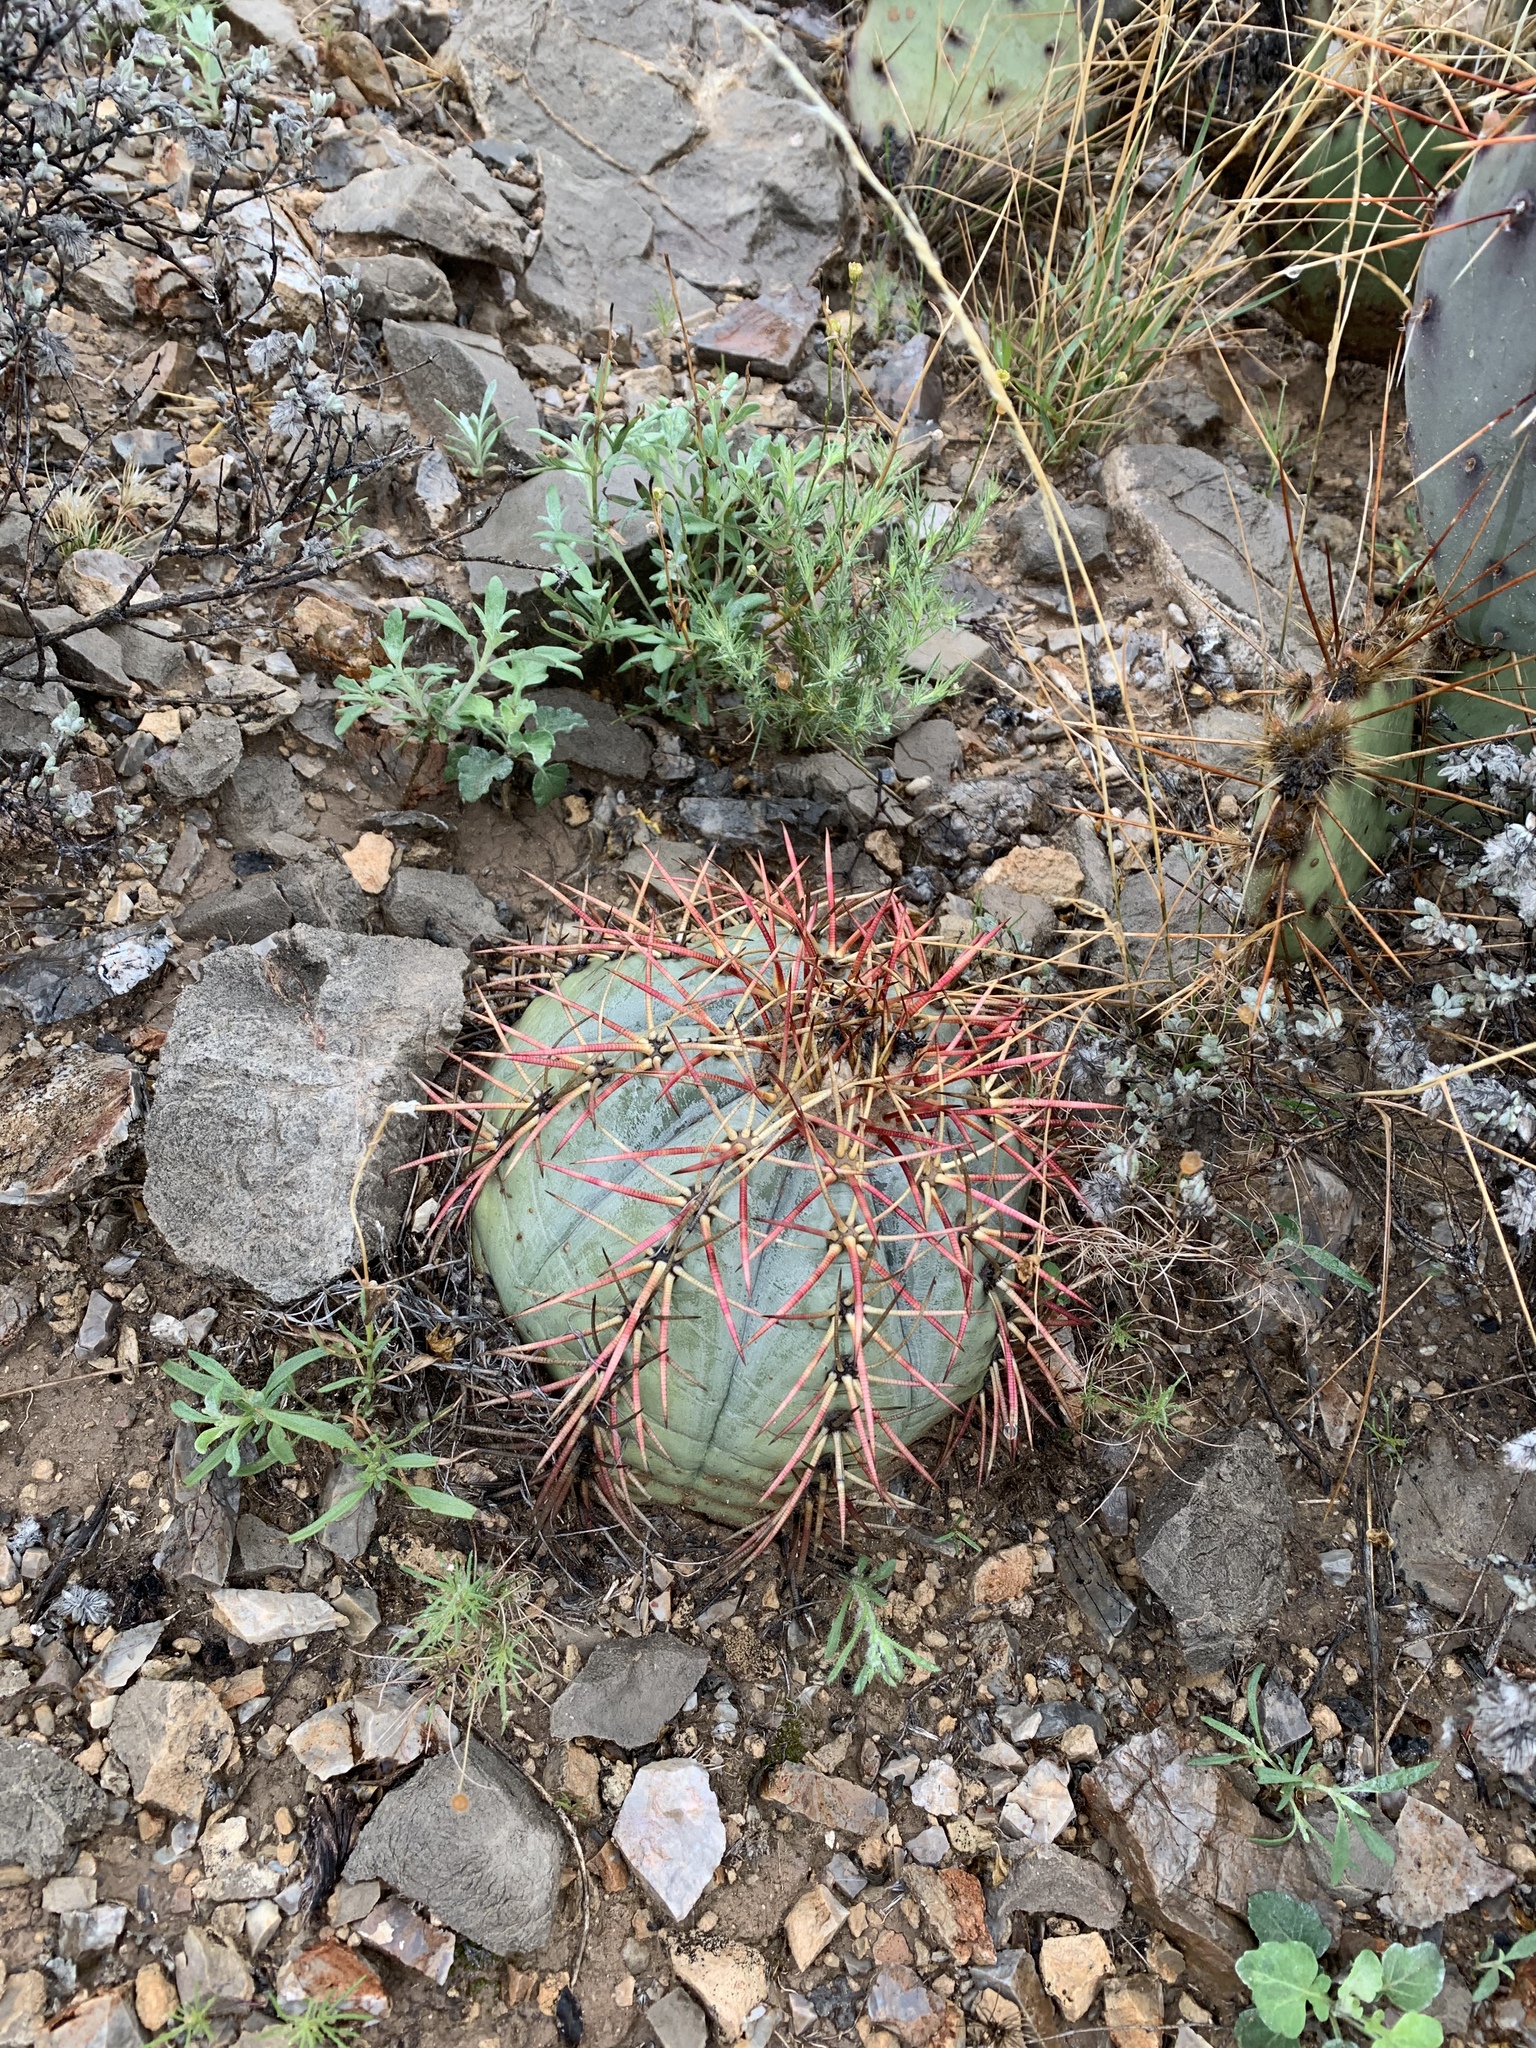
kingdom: Plantae
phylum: Tracheophyta
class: Magnoliopsida
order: Caryophyllales
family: Cactaceae
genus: Echinocactus
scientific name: Echinocactus horizonthalonius
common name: Devilshead
